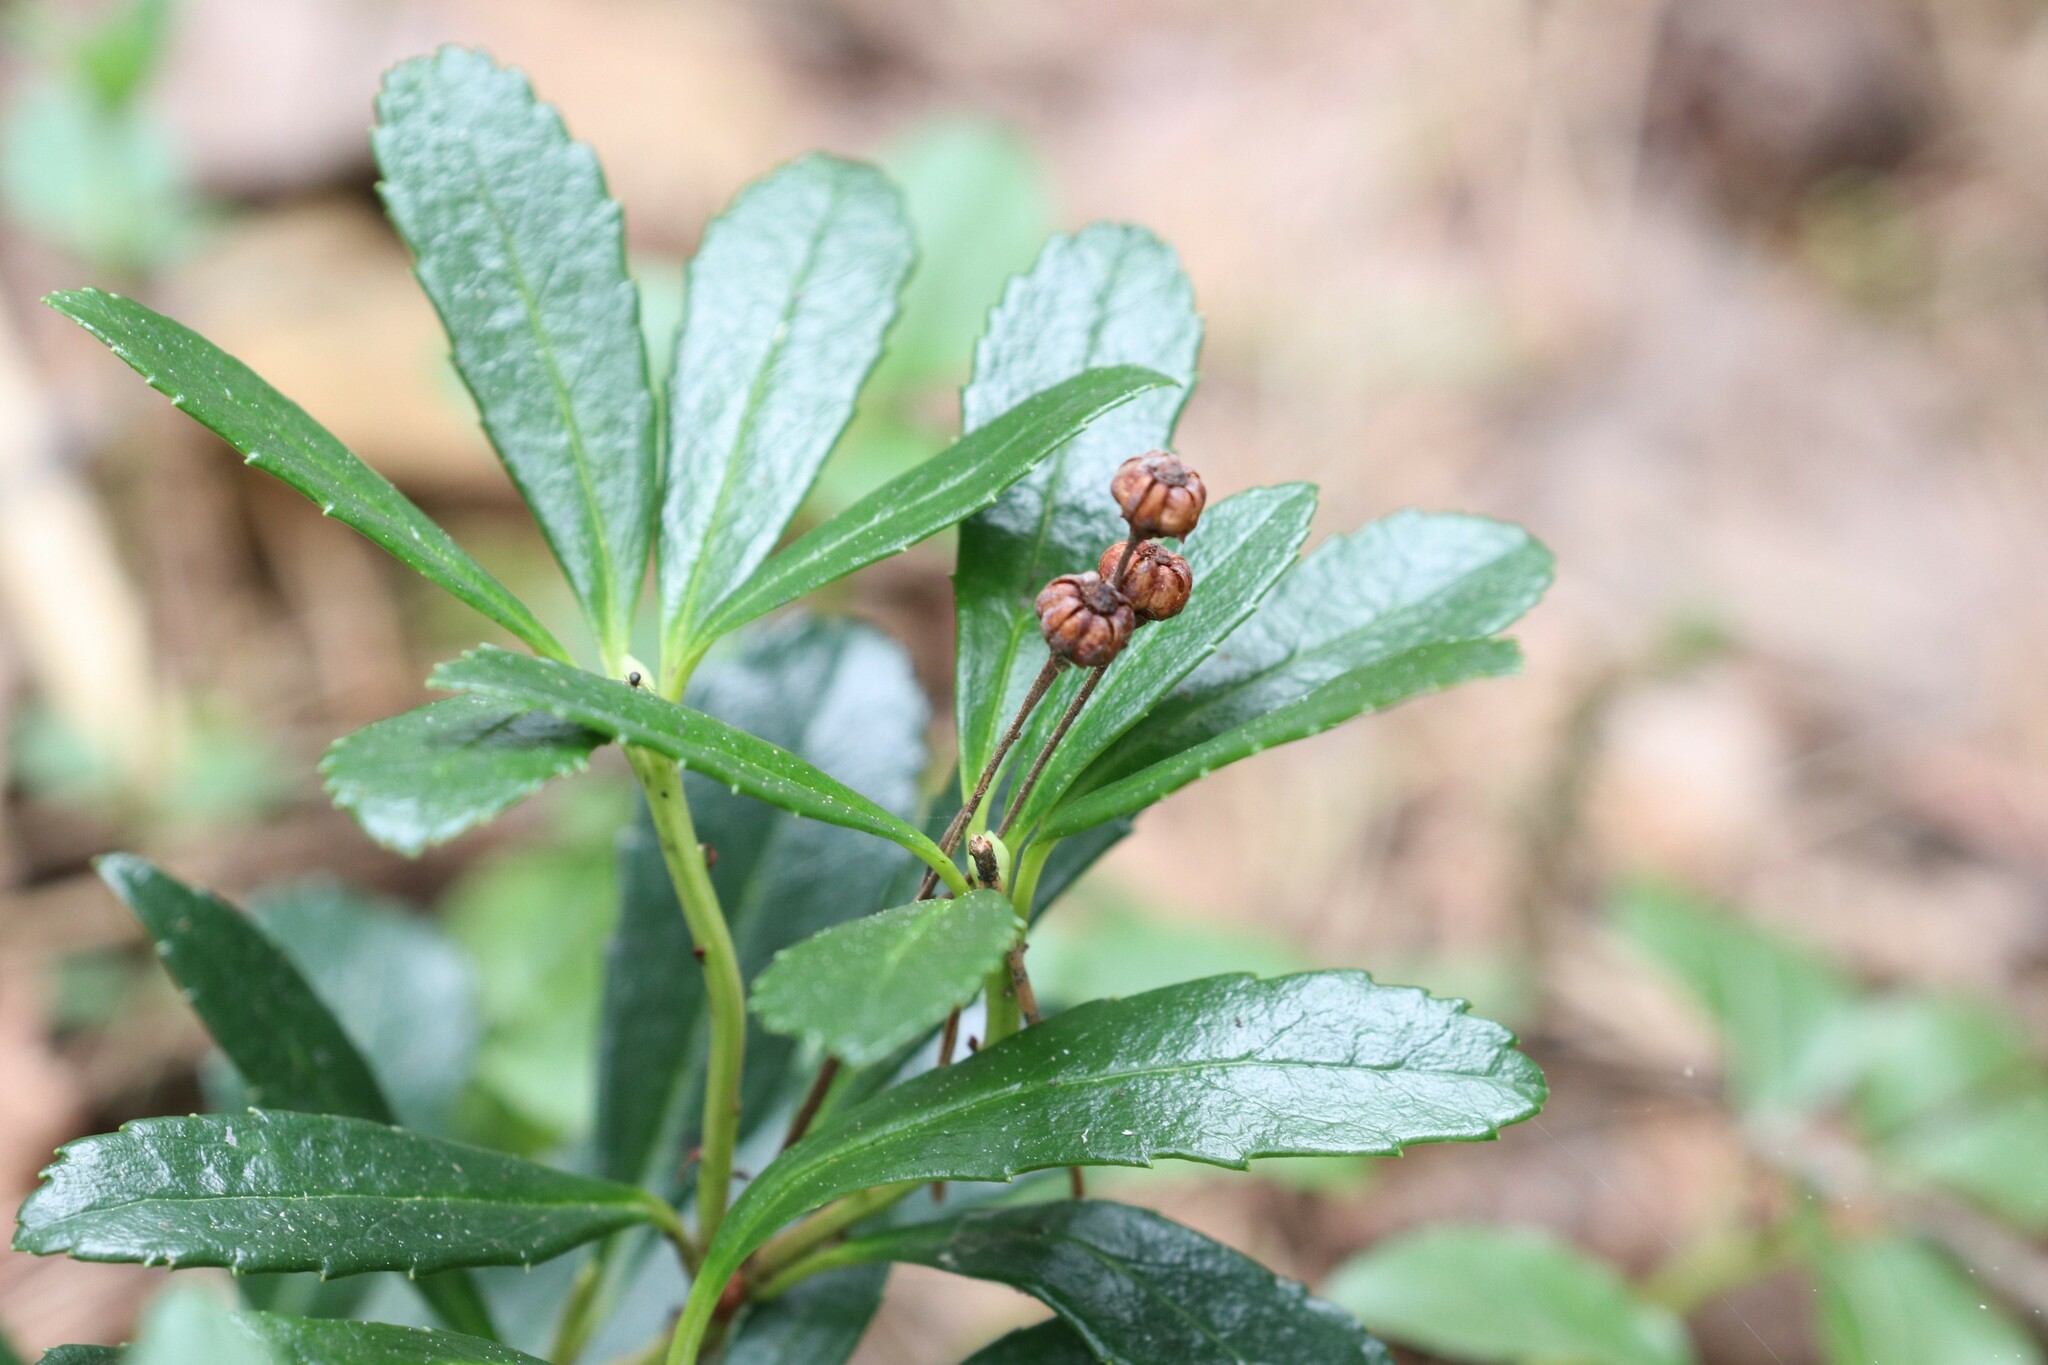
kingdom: Plantae
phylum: Tracheophyta
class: Magnoliopsida
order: Ericales
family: Ericaceae
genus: Chimaphila
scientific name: Chimaphila umbellata
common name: Pipsissewa
